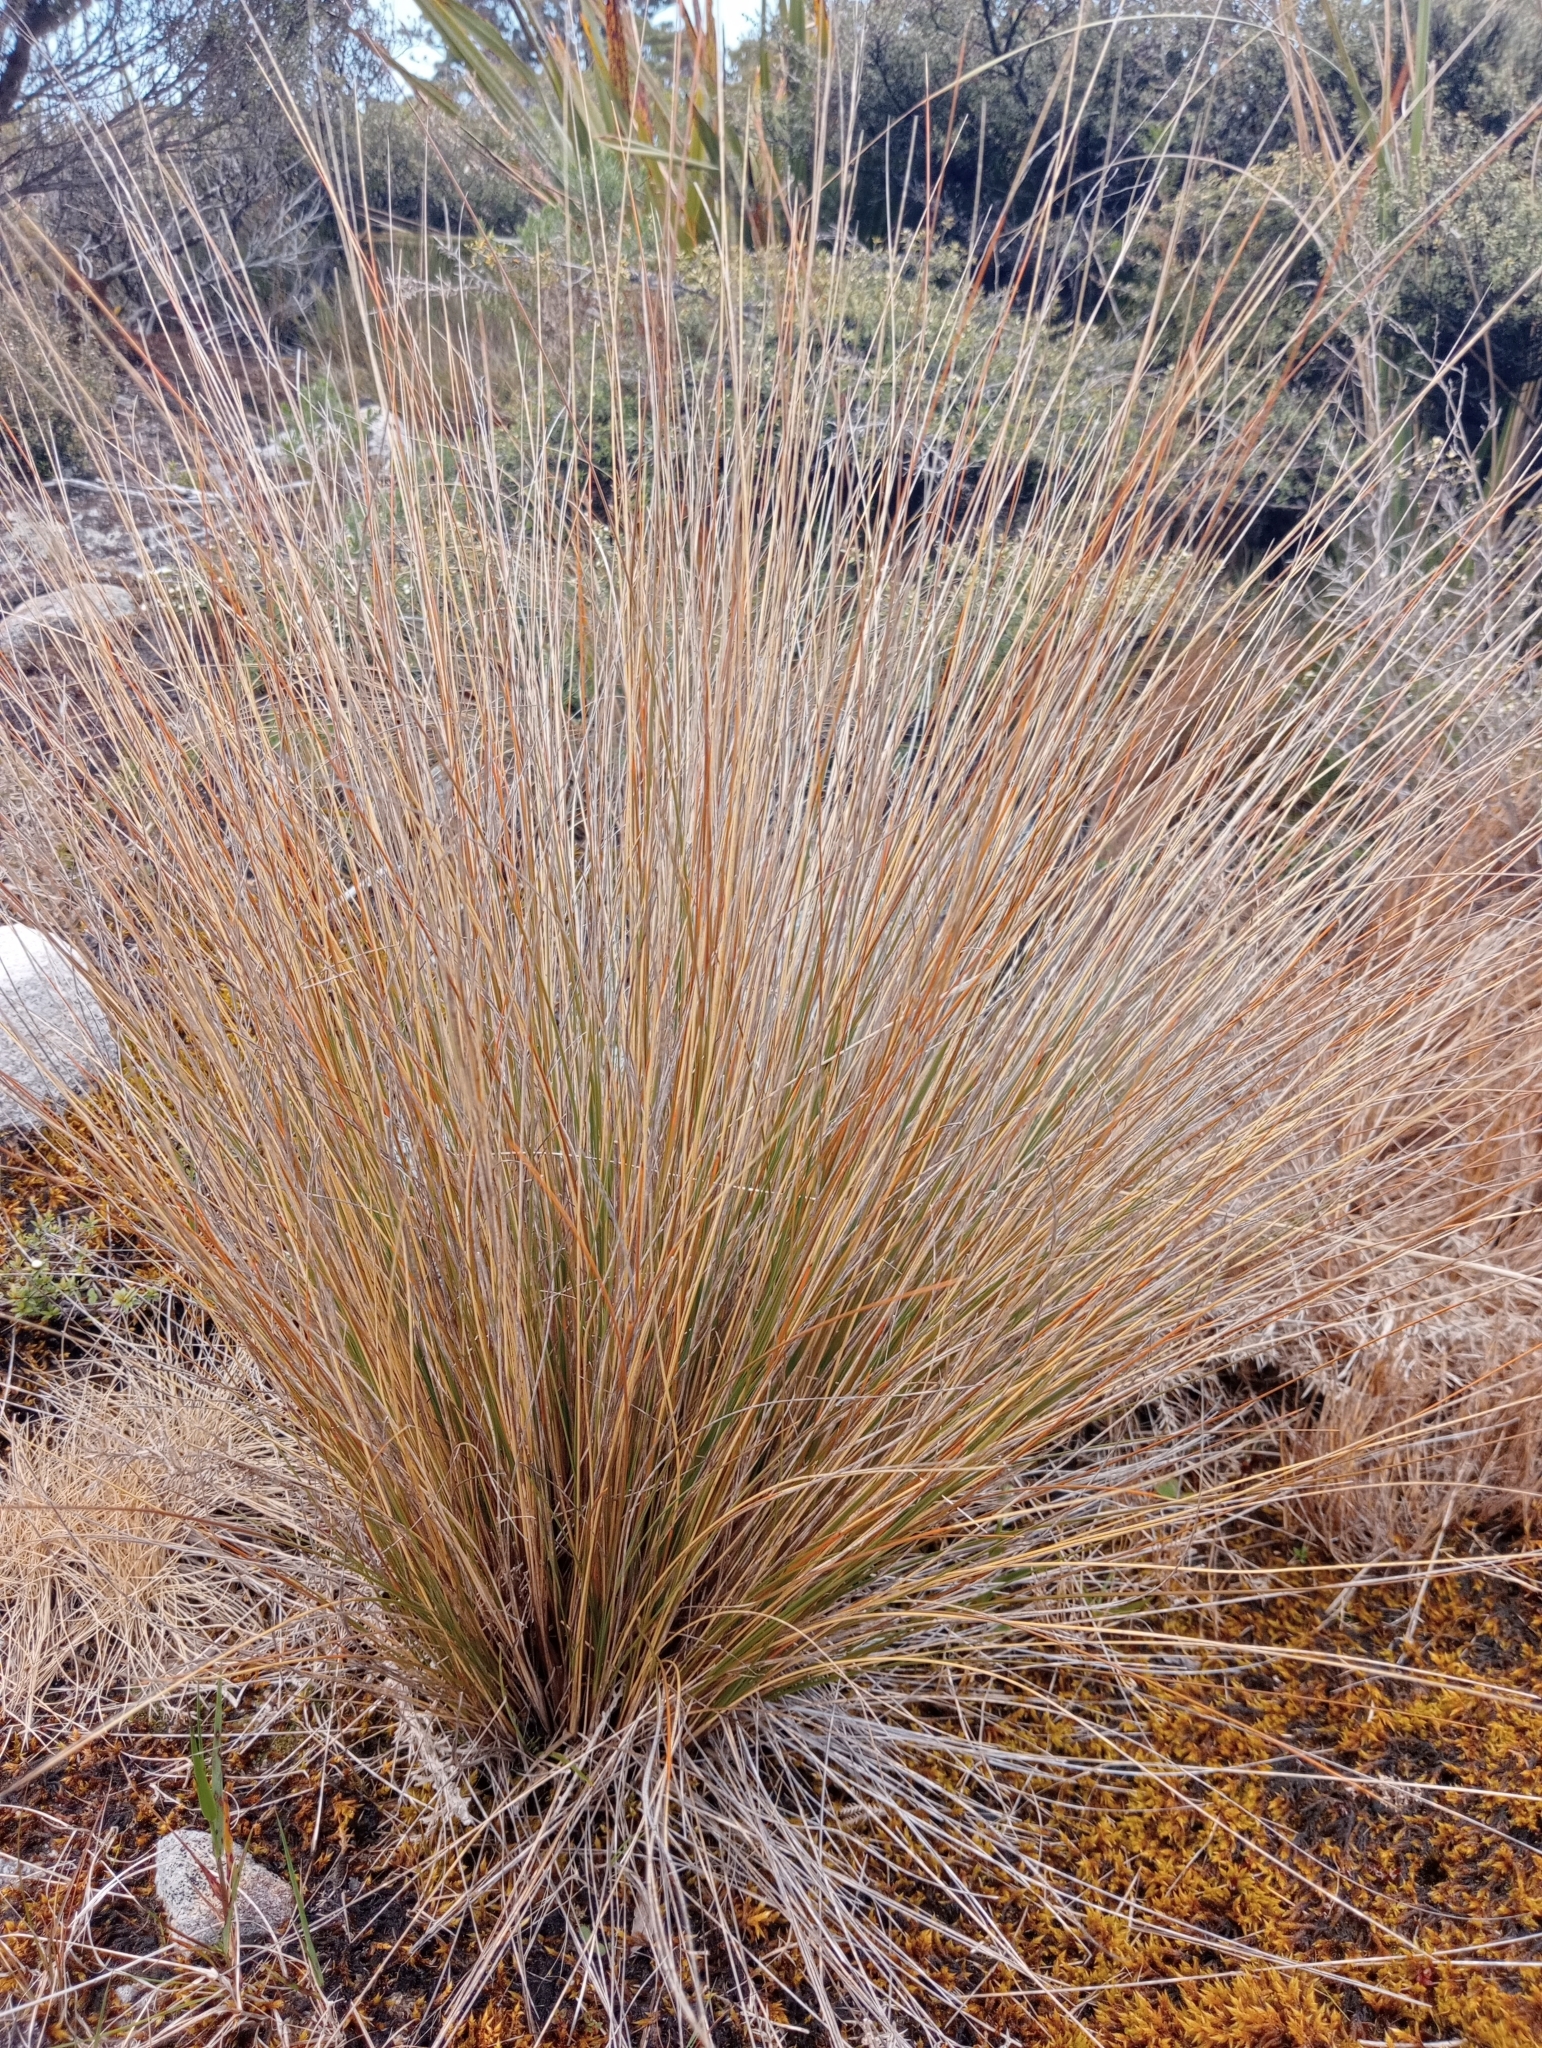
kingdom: Plantae
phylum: Tracheophyta
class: Liliopsida
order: Poales
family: Poaceae
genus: Chionochloa
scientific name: Chionochloa juncea
